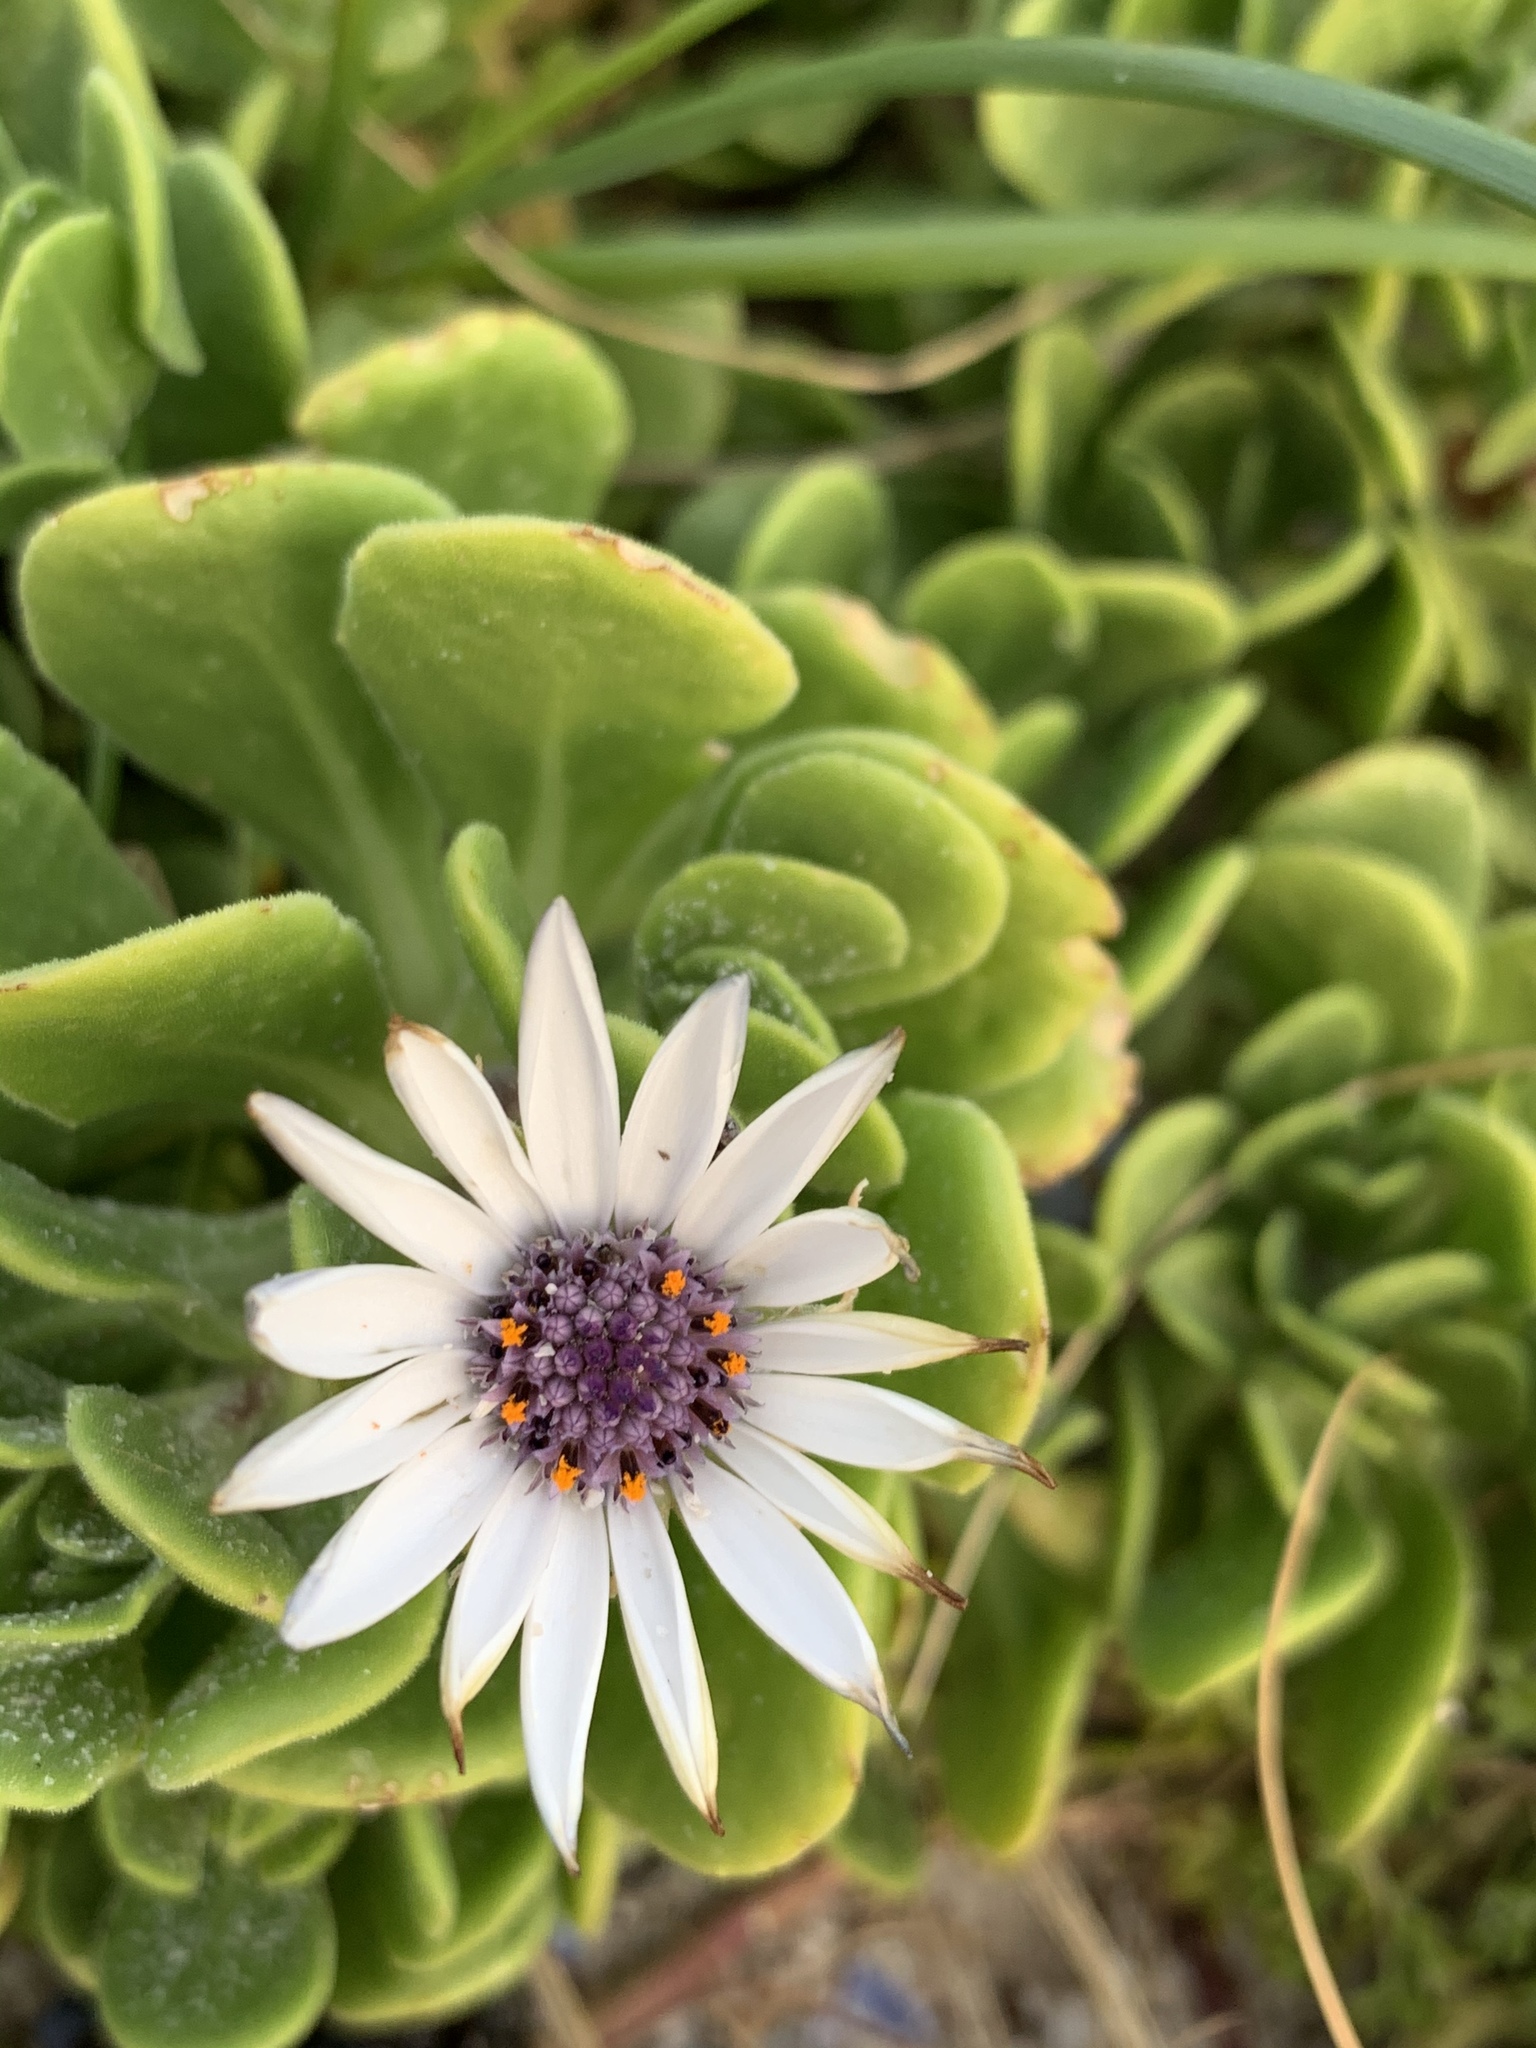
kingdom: Plantae
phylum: Tracheophyta
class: Magnoliopsida
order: Asterales
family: Asteraceae
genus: Dimorphotheca
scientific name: Dimorphotheca fruticosa
